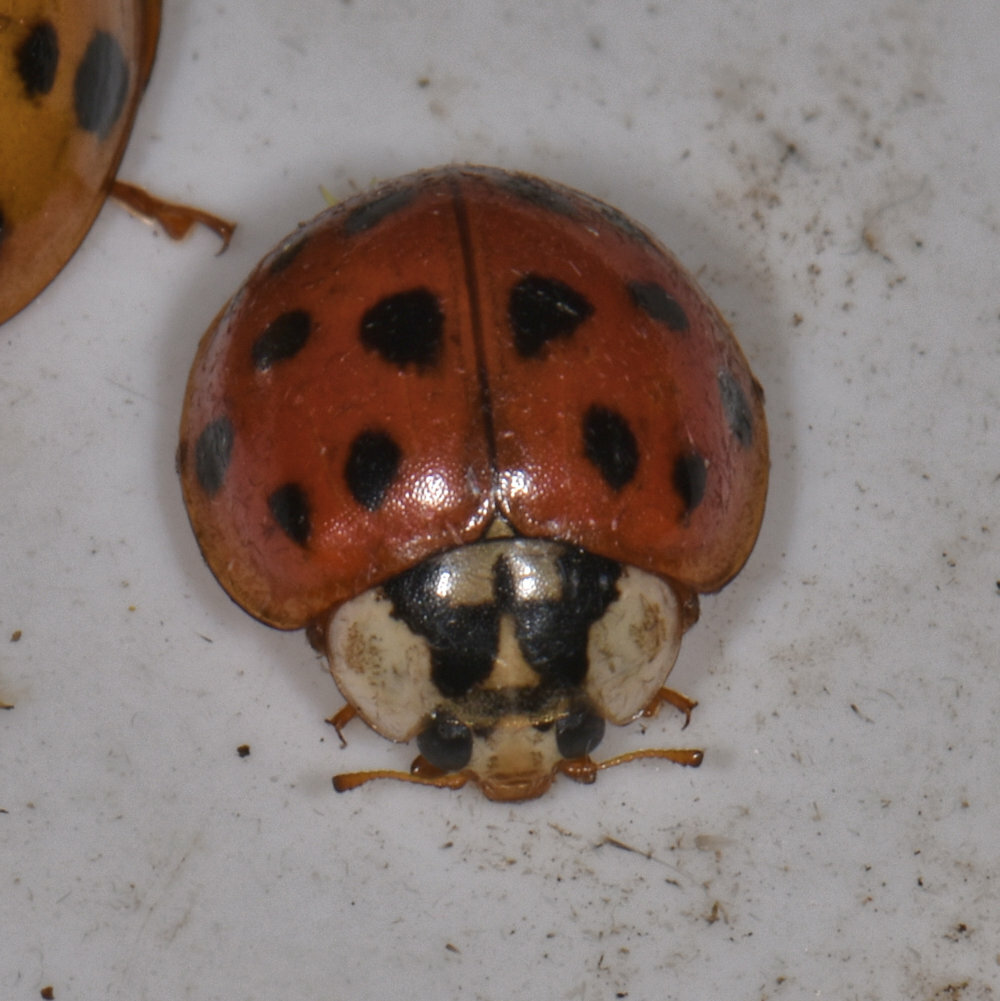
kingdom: Animalia
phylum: Arthropoda
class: Insecta
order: Coleoptera
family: Coccinellidae
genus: Harmonia
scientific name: Harmonia axyridis
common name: Harlequin ladybird
